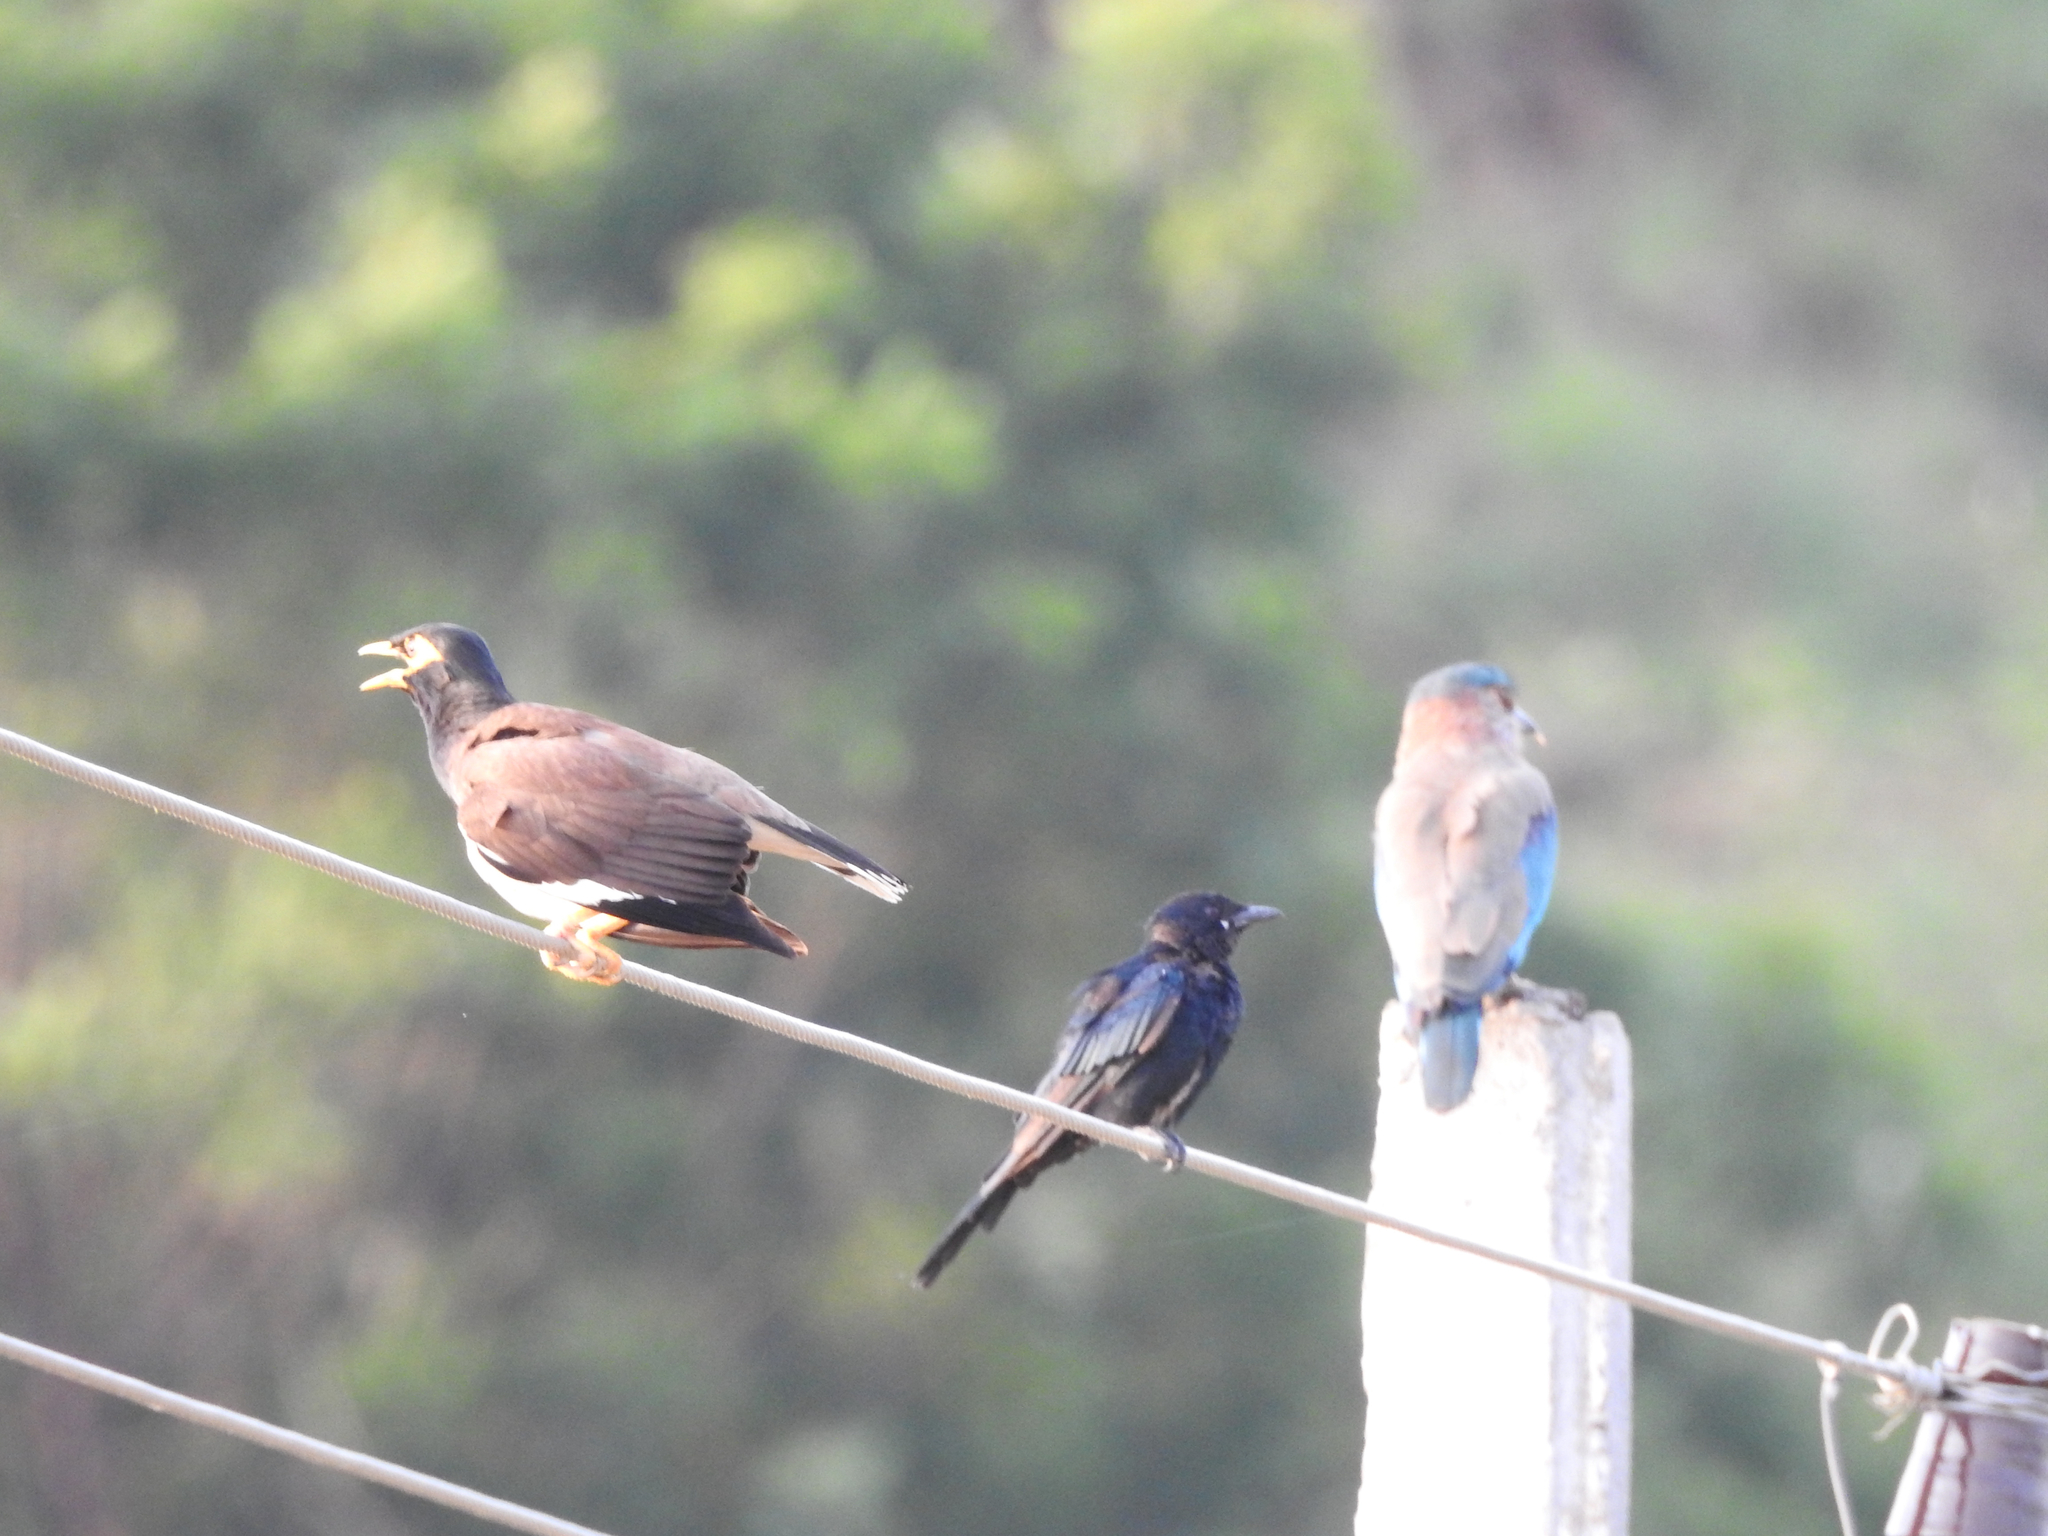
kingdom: Animalia
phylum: Chordata
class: Aves
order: Passeriformes
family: Dicruridae
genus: Dicrurus
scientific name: Dicrurus macrocercus
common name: Black drongo
